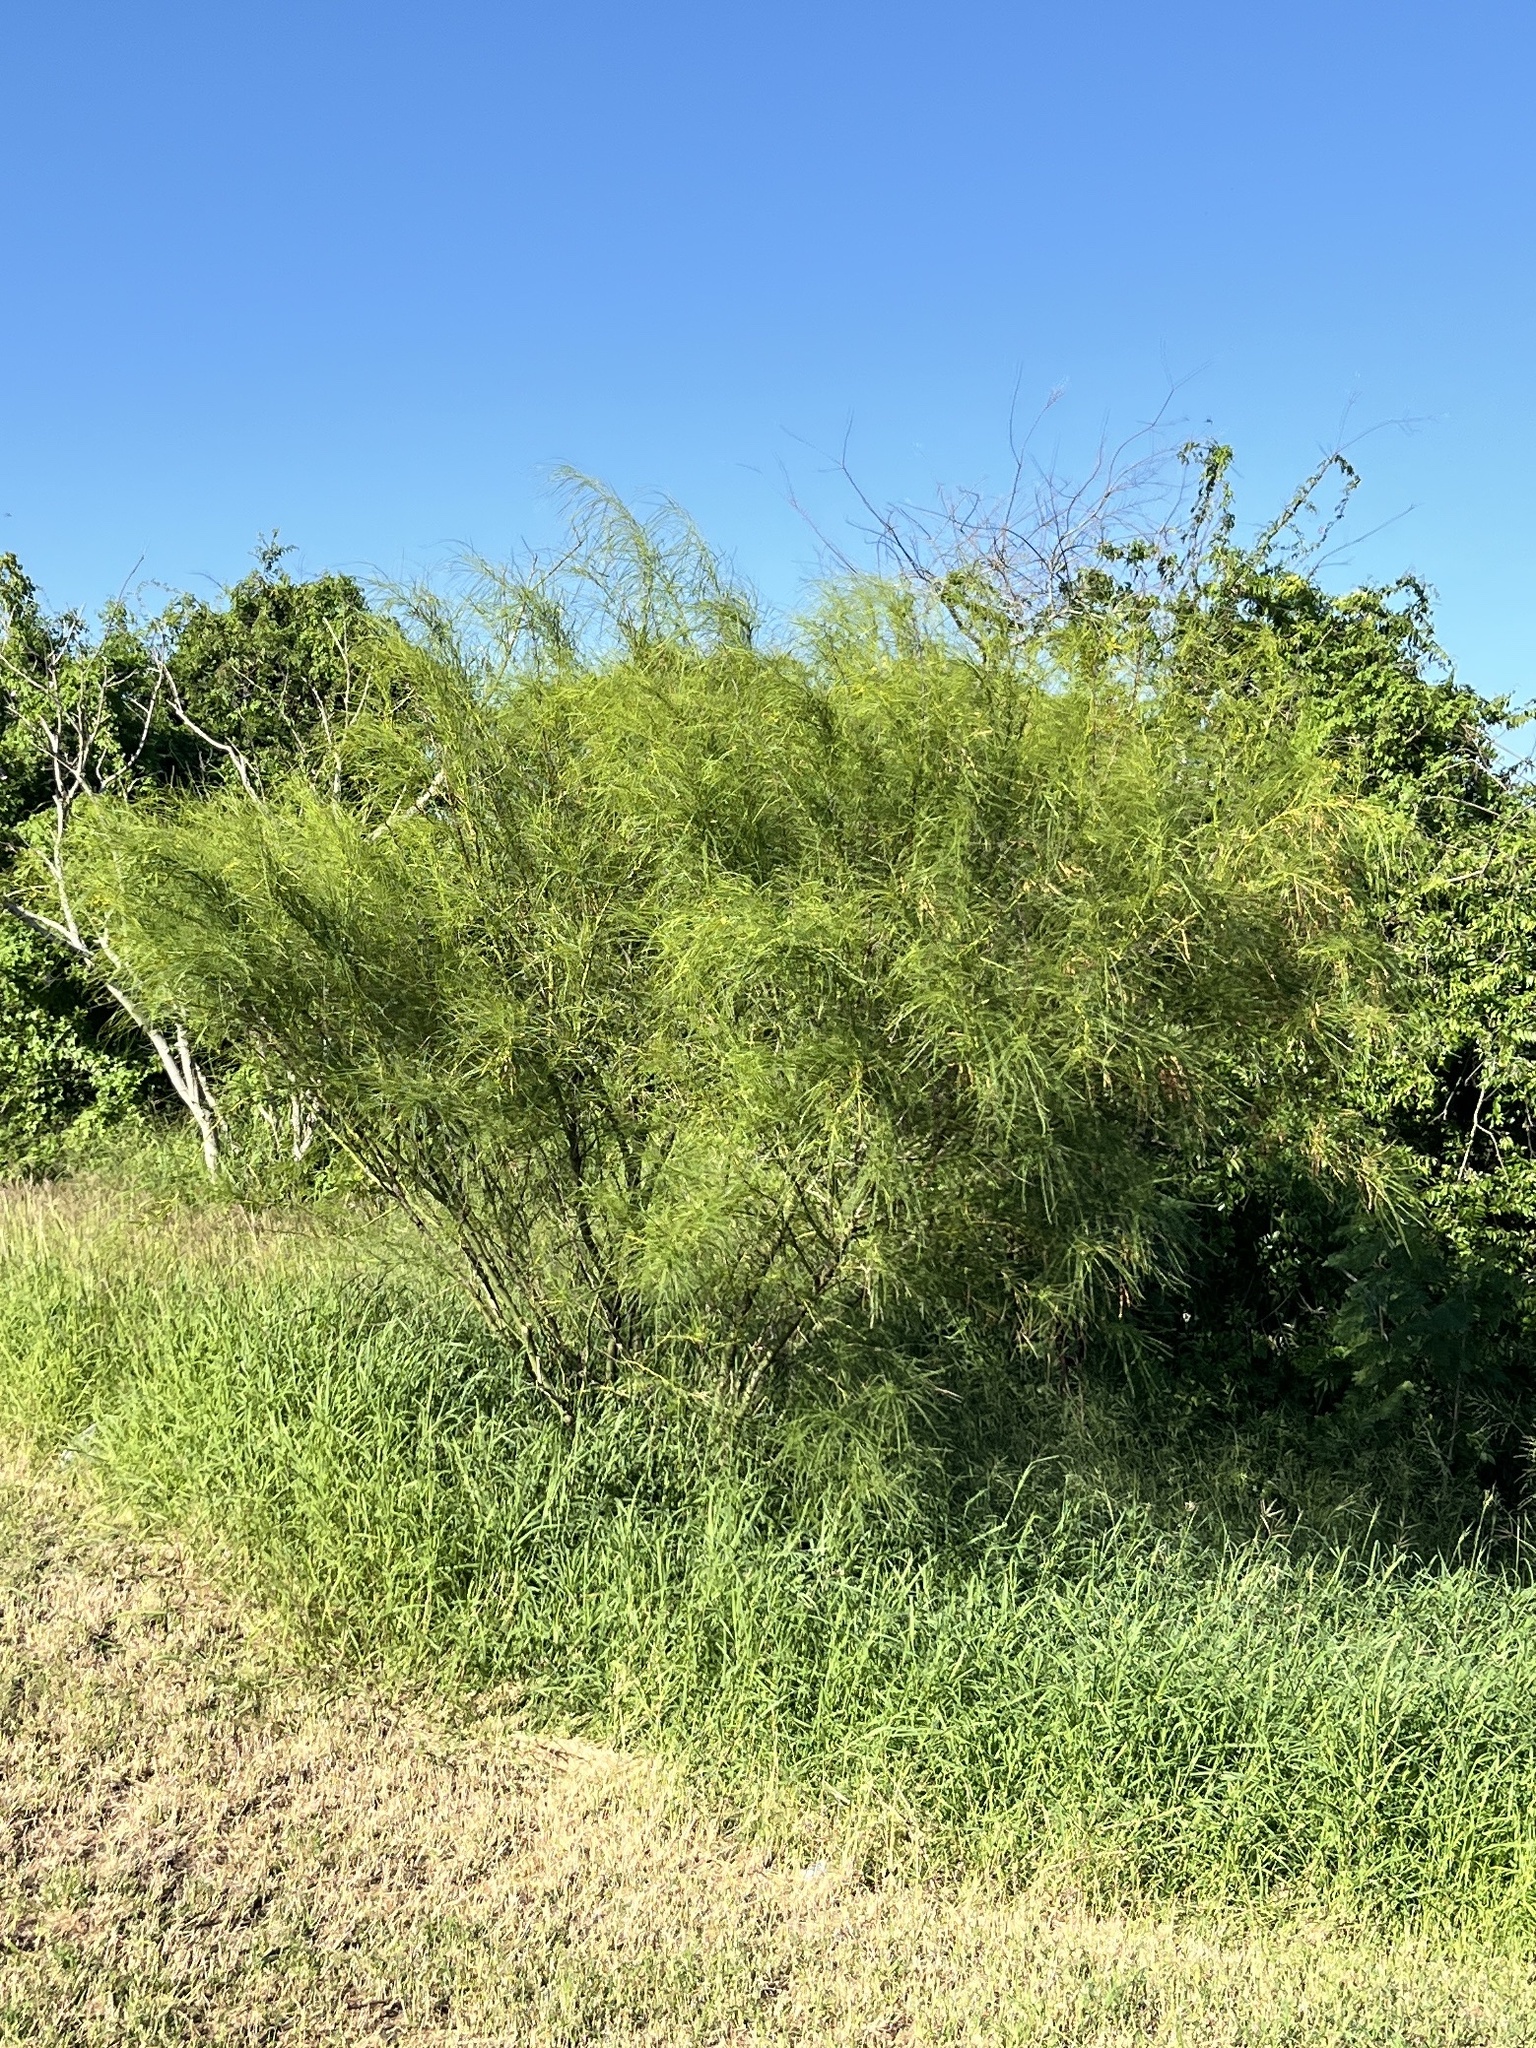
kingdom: Plantae
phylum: Tracheophyta
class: Magnoliopsida
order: Fabales
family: Fabaceae
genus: Parkinsonia
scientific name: Parkinsonia aculeata
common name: Jerusalem thorn
